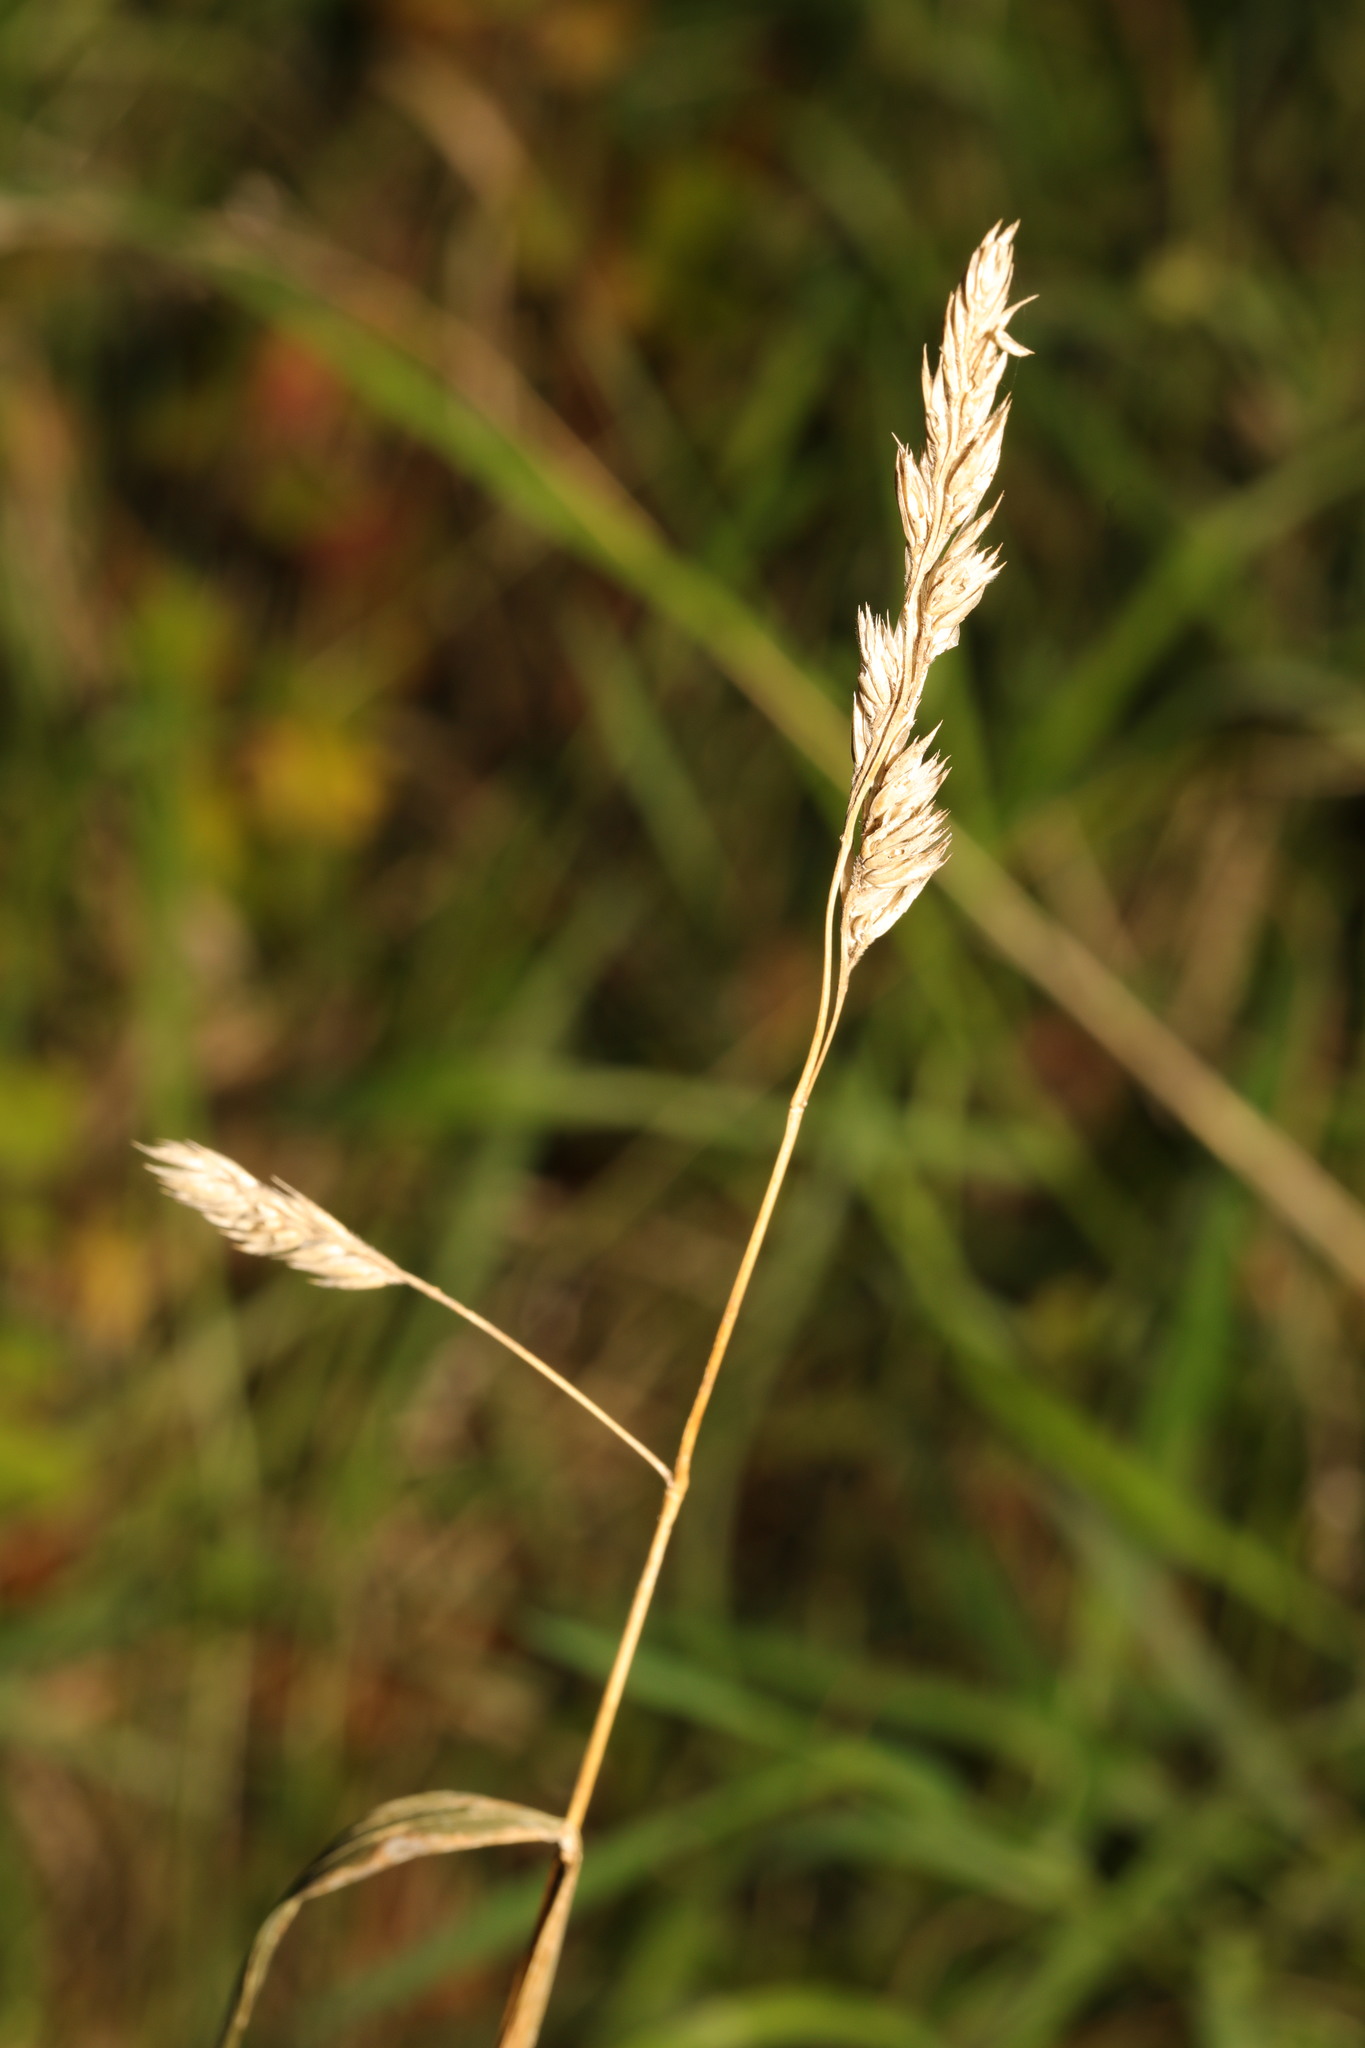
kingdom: Plantae
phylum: Tracheophyta
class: Liliopsida
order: Poales
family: Poaceae
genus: Dactylis
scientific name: Dactylis glomerata
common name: Orchardgrass
